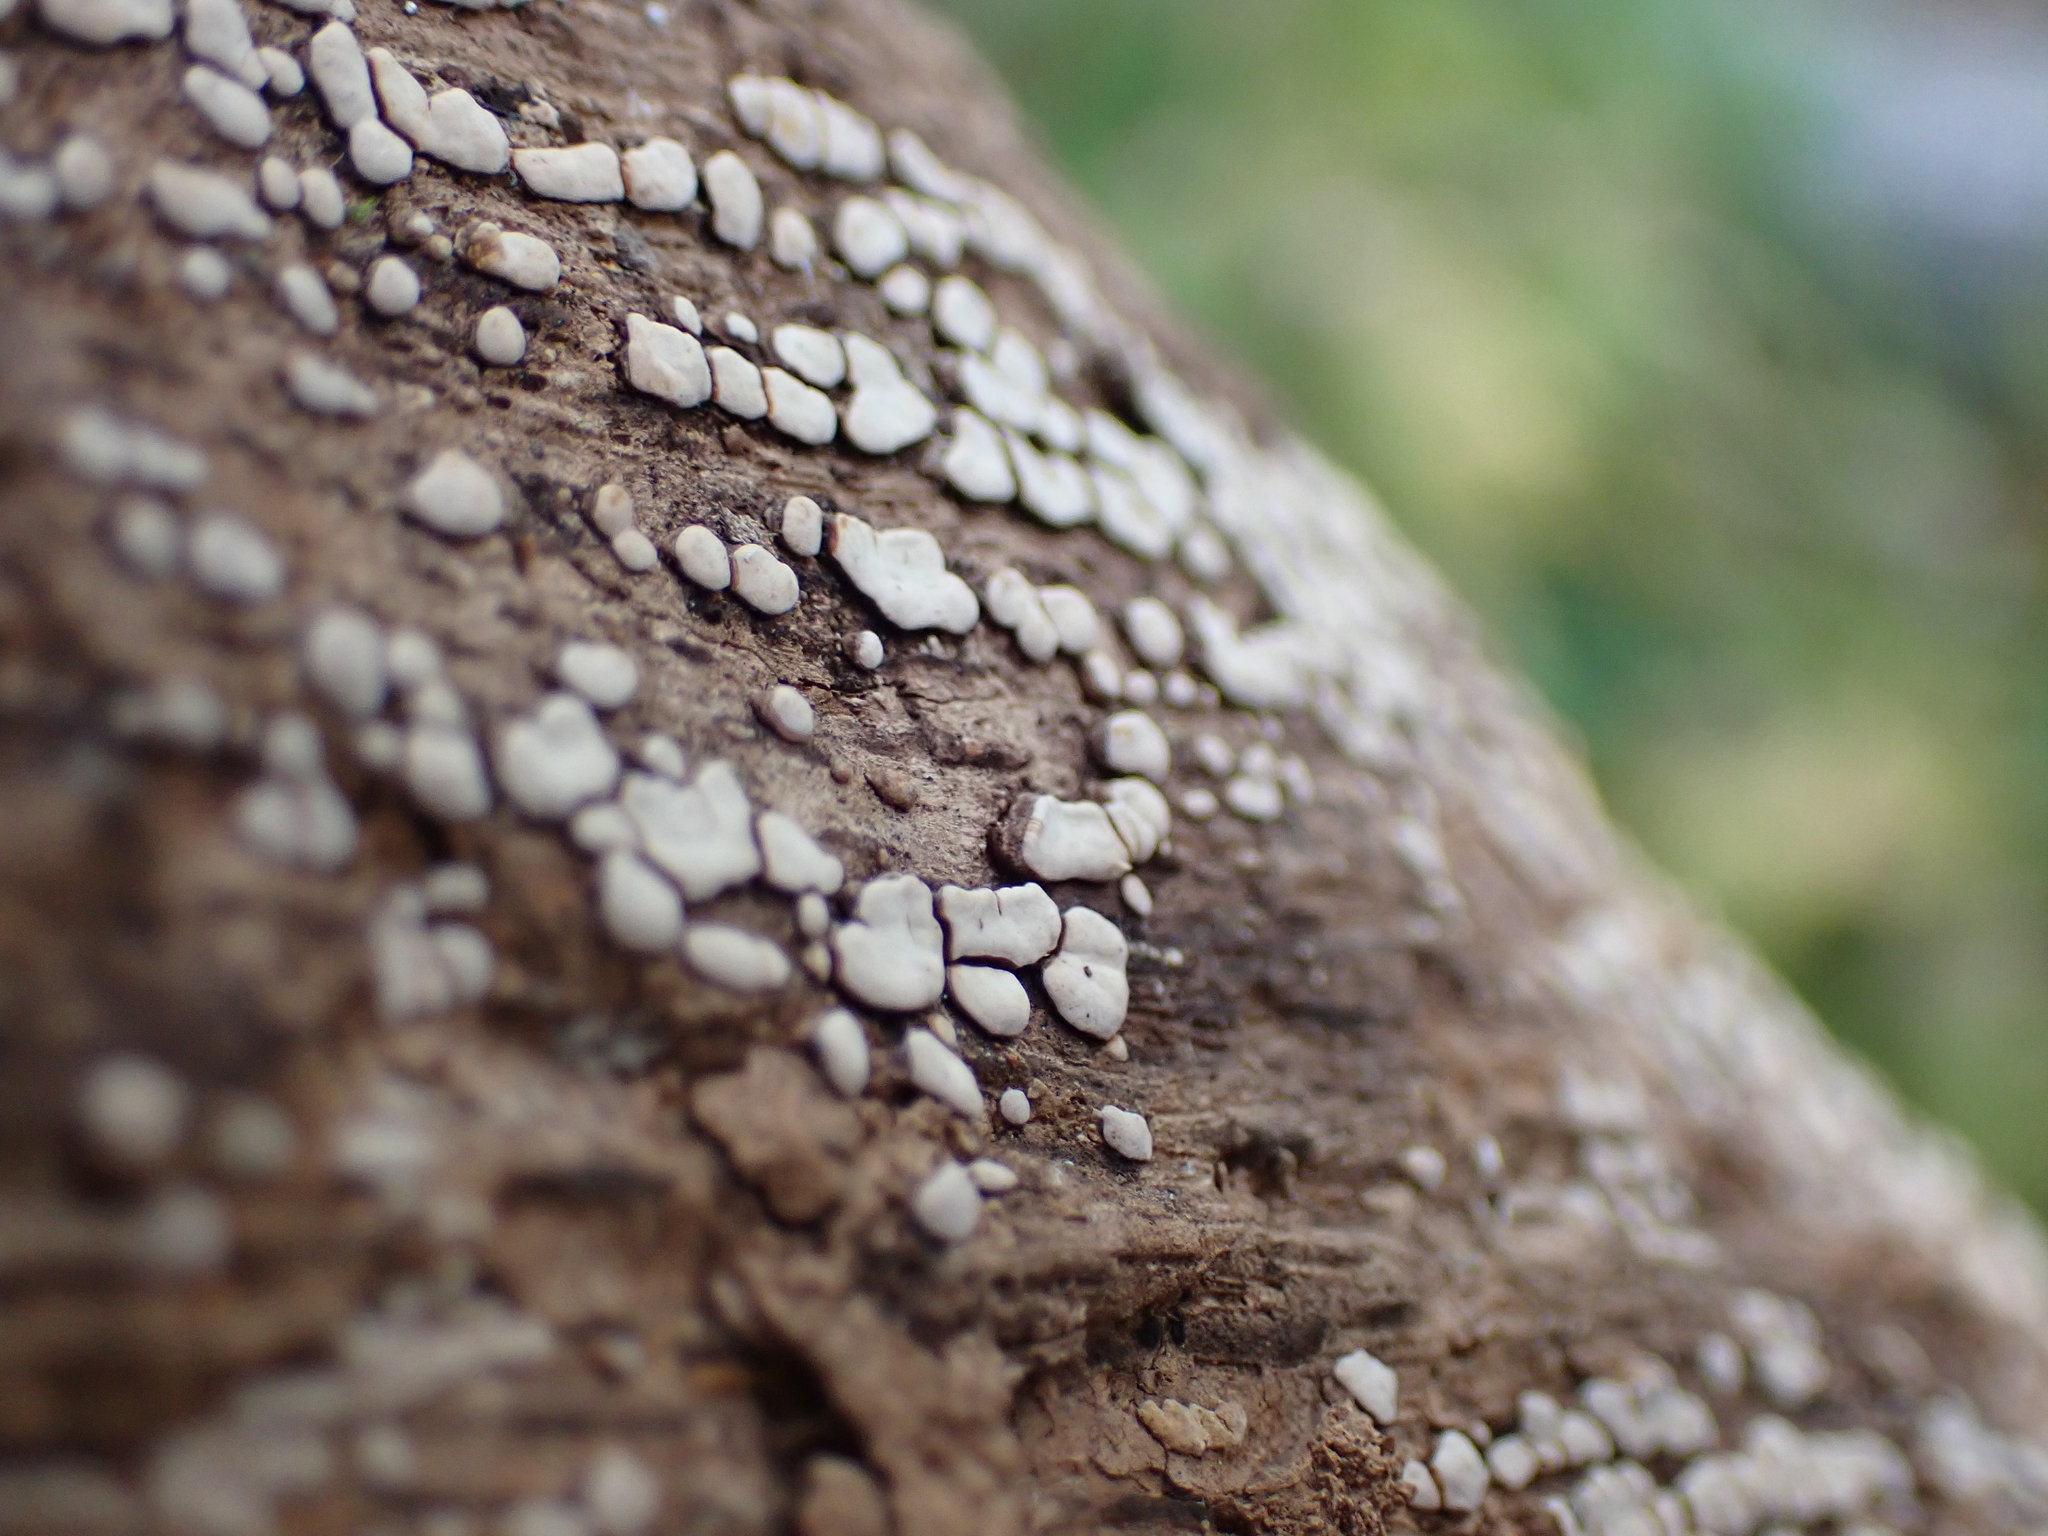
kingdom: Fungi
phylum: Basidiomycota
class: Agaricomycetes
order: Russulales
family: Stereaceae
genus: Xylobolus
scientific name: Xylobolus frustulatus
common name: Ceramic parchment
